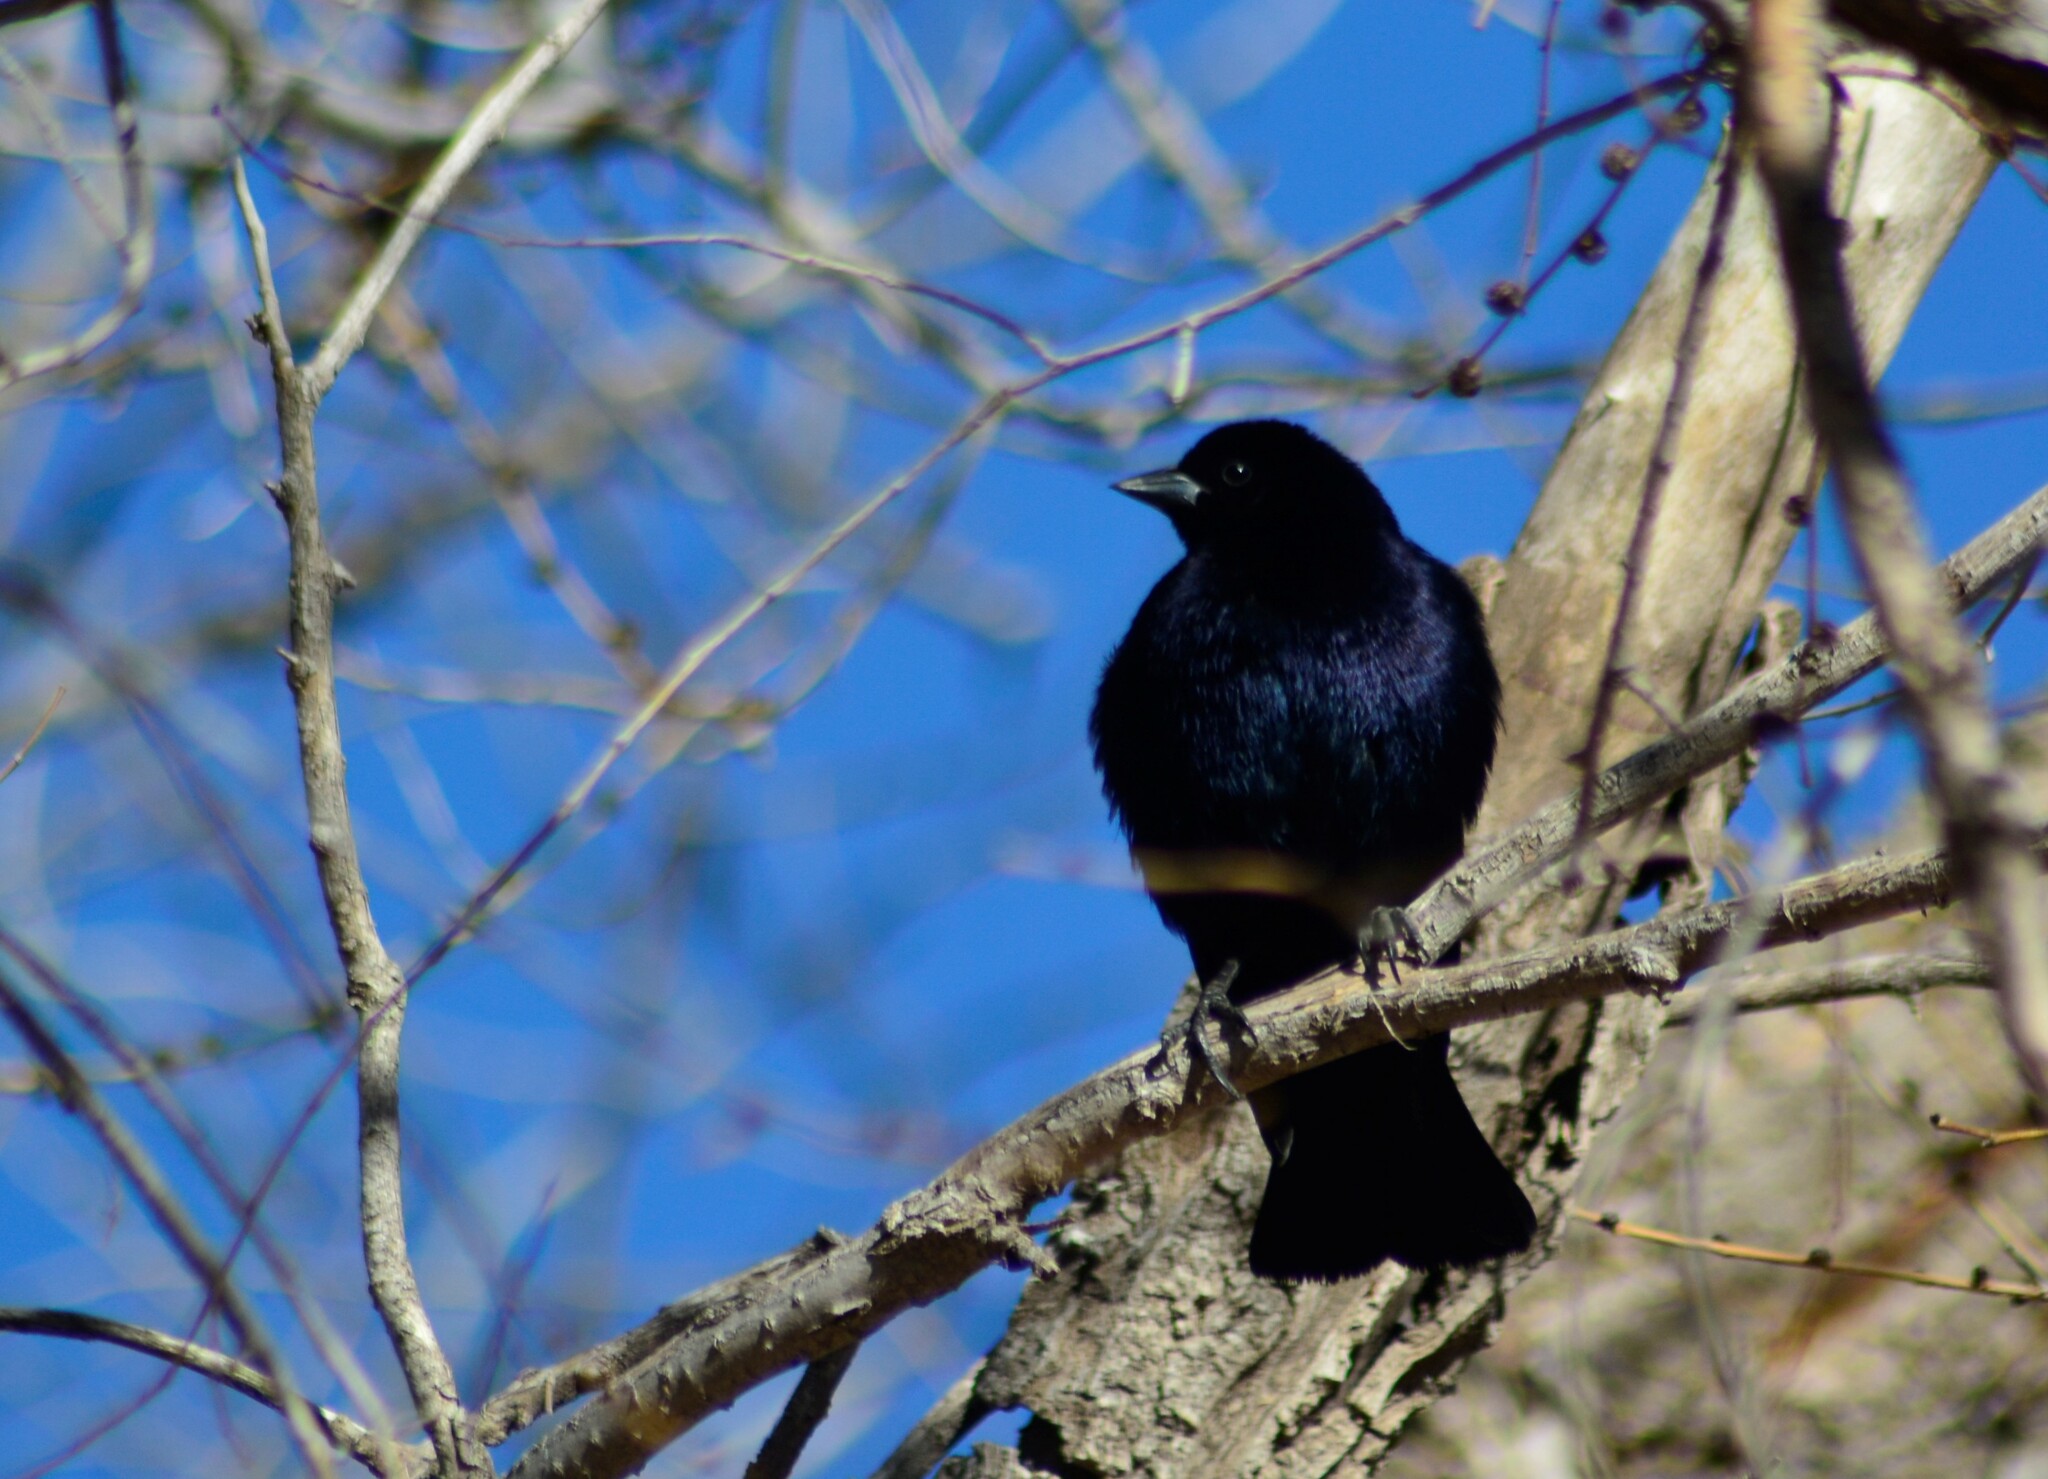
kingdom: Animalia
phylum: Chordata
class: Aves
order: Passeriformes
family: Icteridae
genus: Molothrus
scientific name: Molothrus bonariensis
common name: Shiny cowbird
